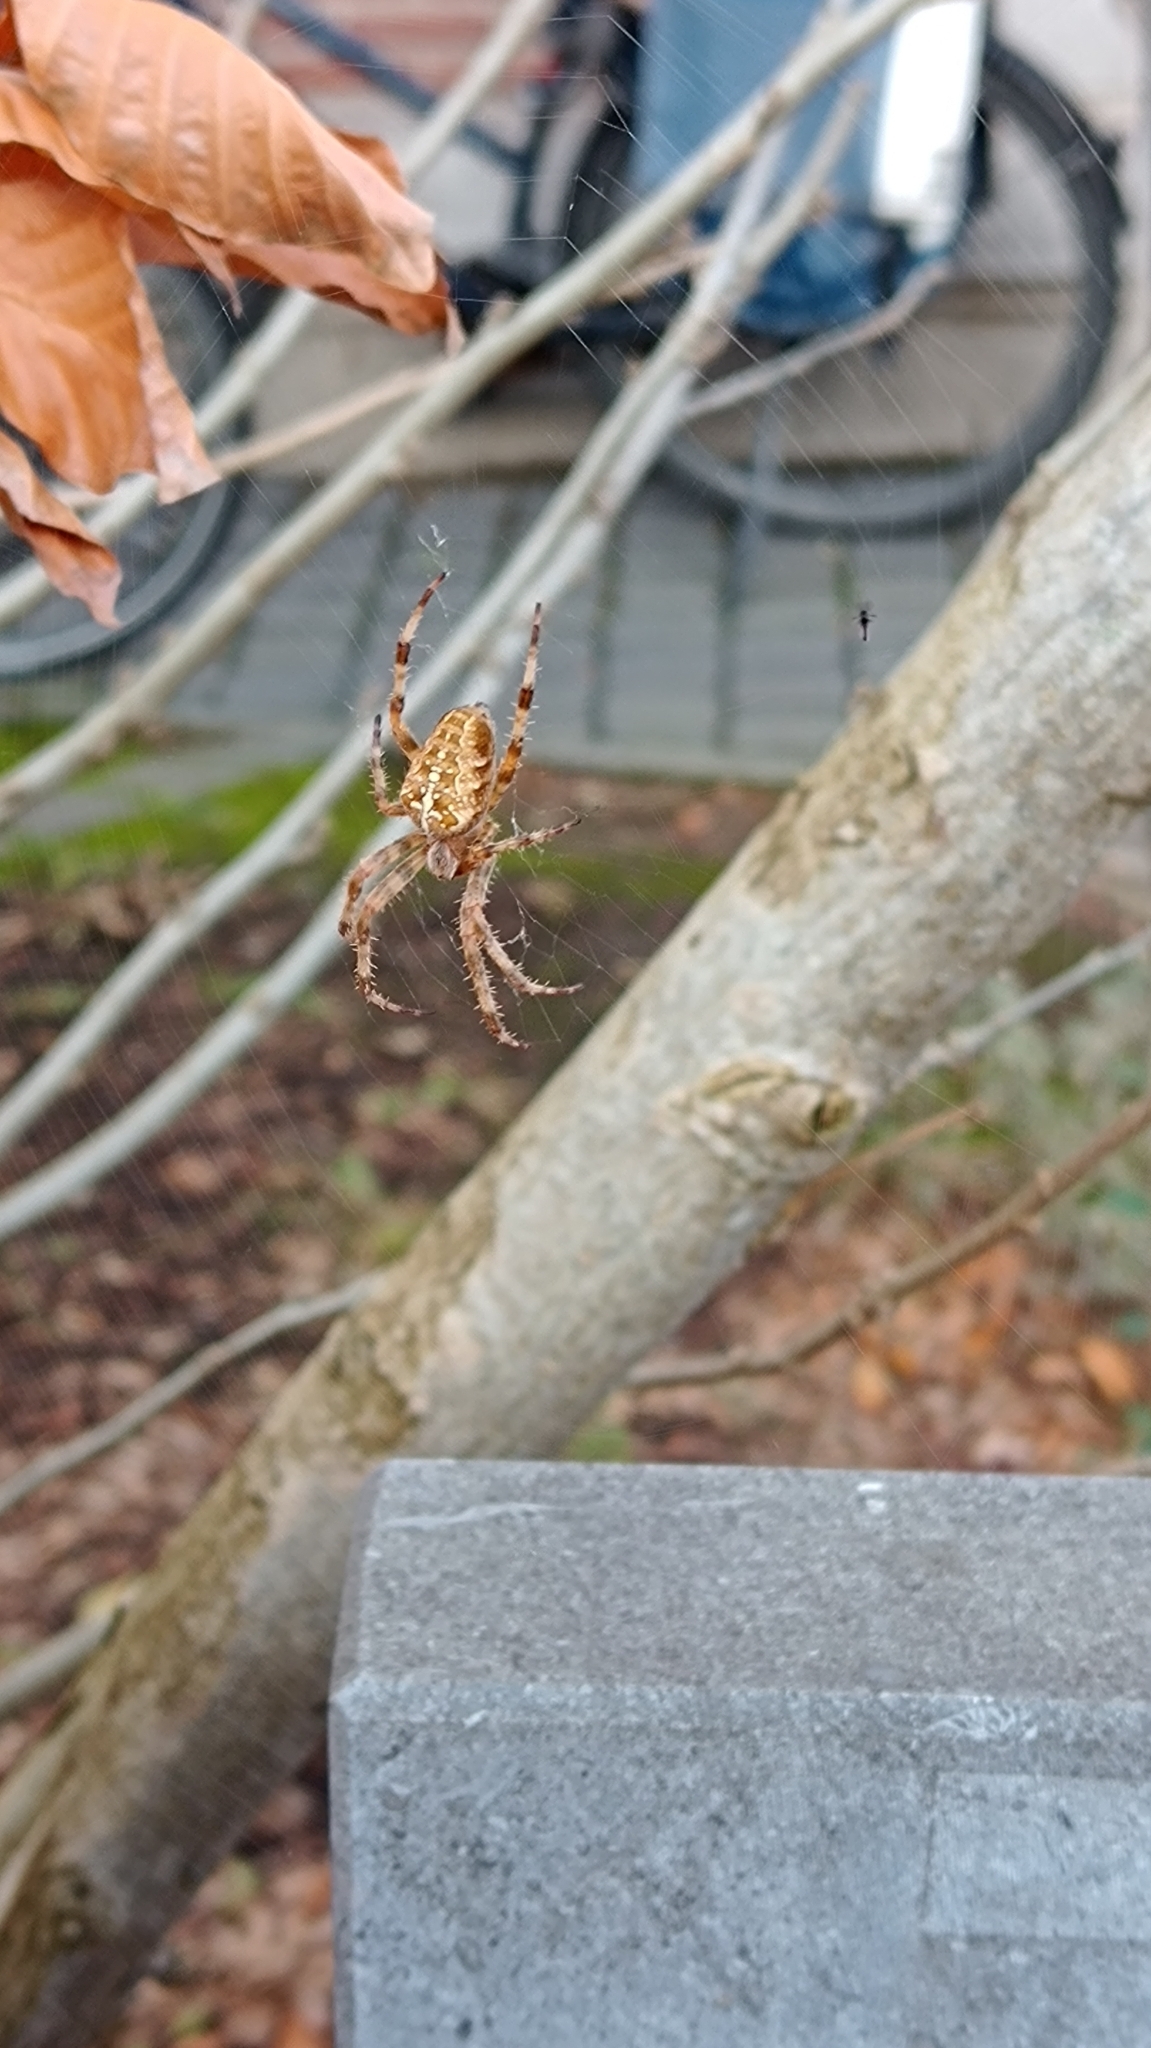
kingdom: Animalia
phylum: Arthropoda
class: Arachnida
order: Araneae
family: Araneidae
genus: Araneus
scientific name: Araneus diadematus
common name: Cross orbweaver
